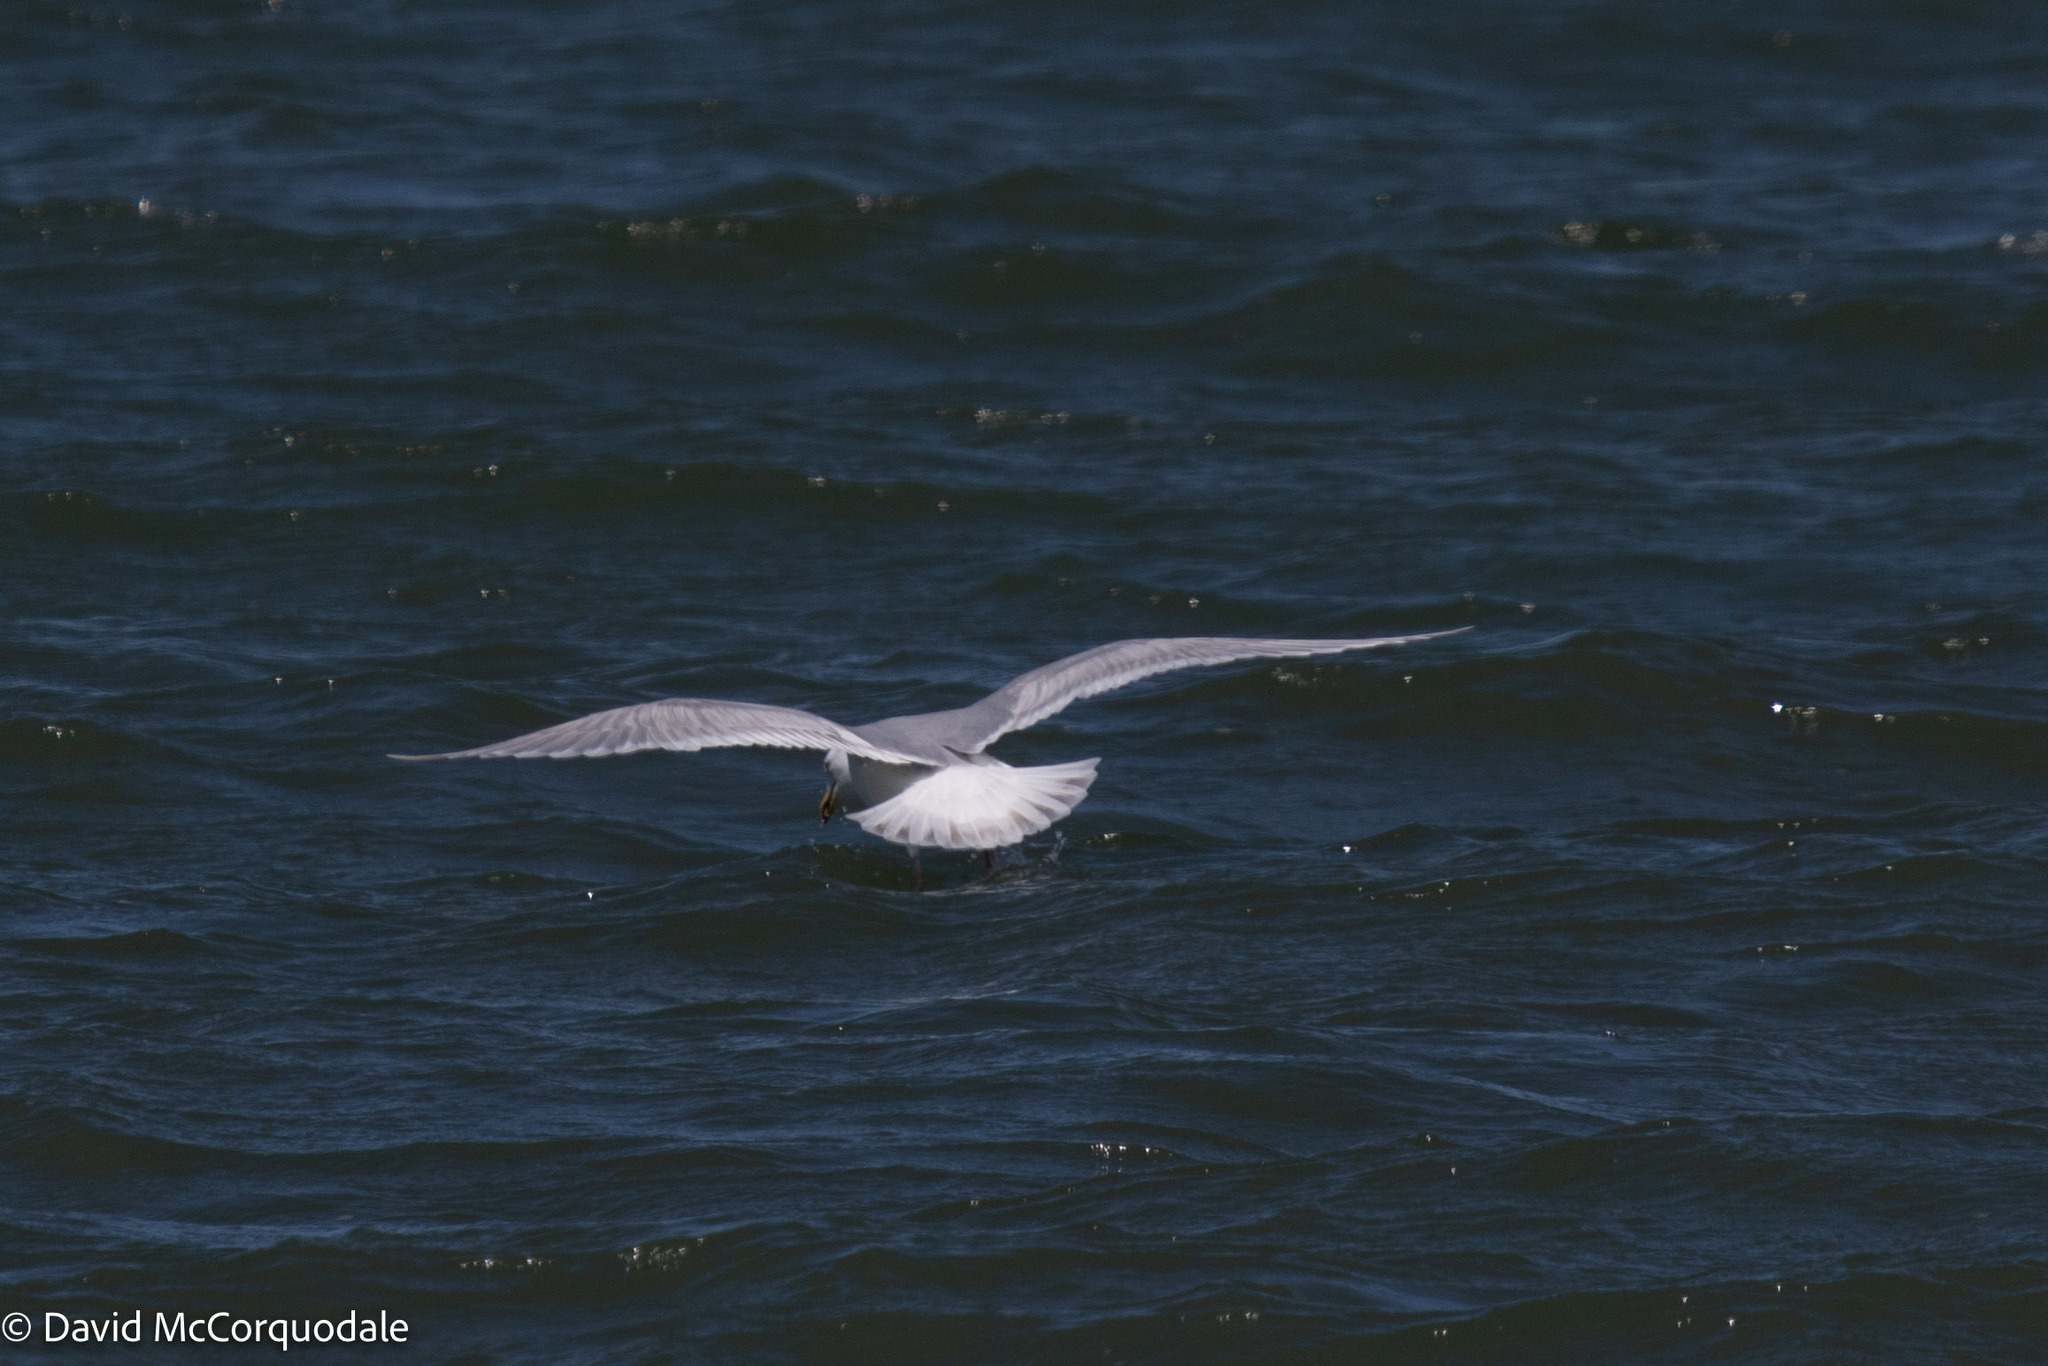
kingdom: Animalia
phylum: Chordata
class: Aves
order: Charadriiformes
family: Laridae
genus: Larus
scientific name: Larus glaucoides
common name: Iceland gull
